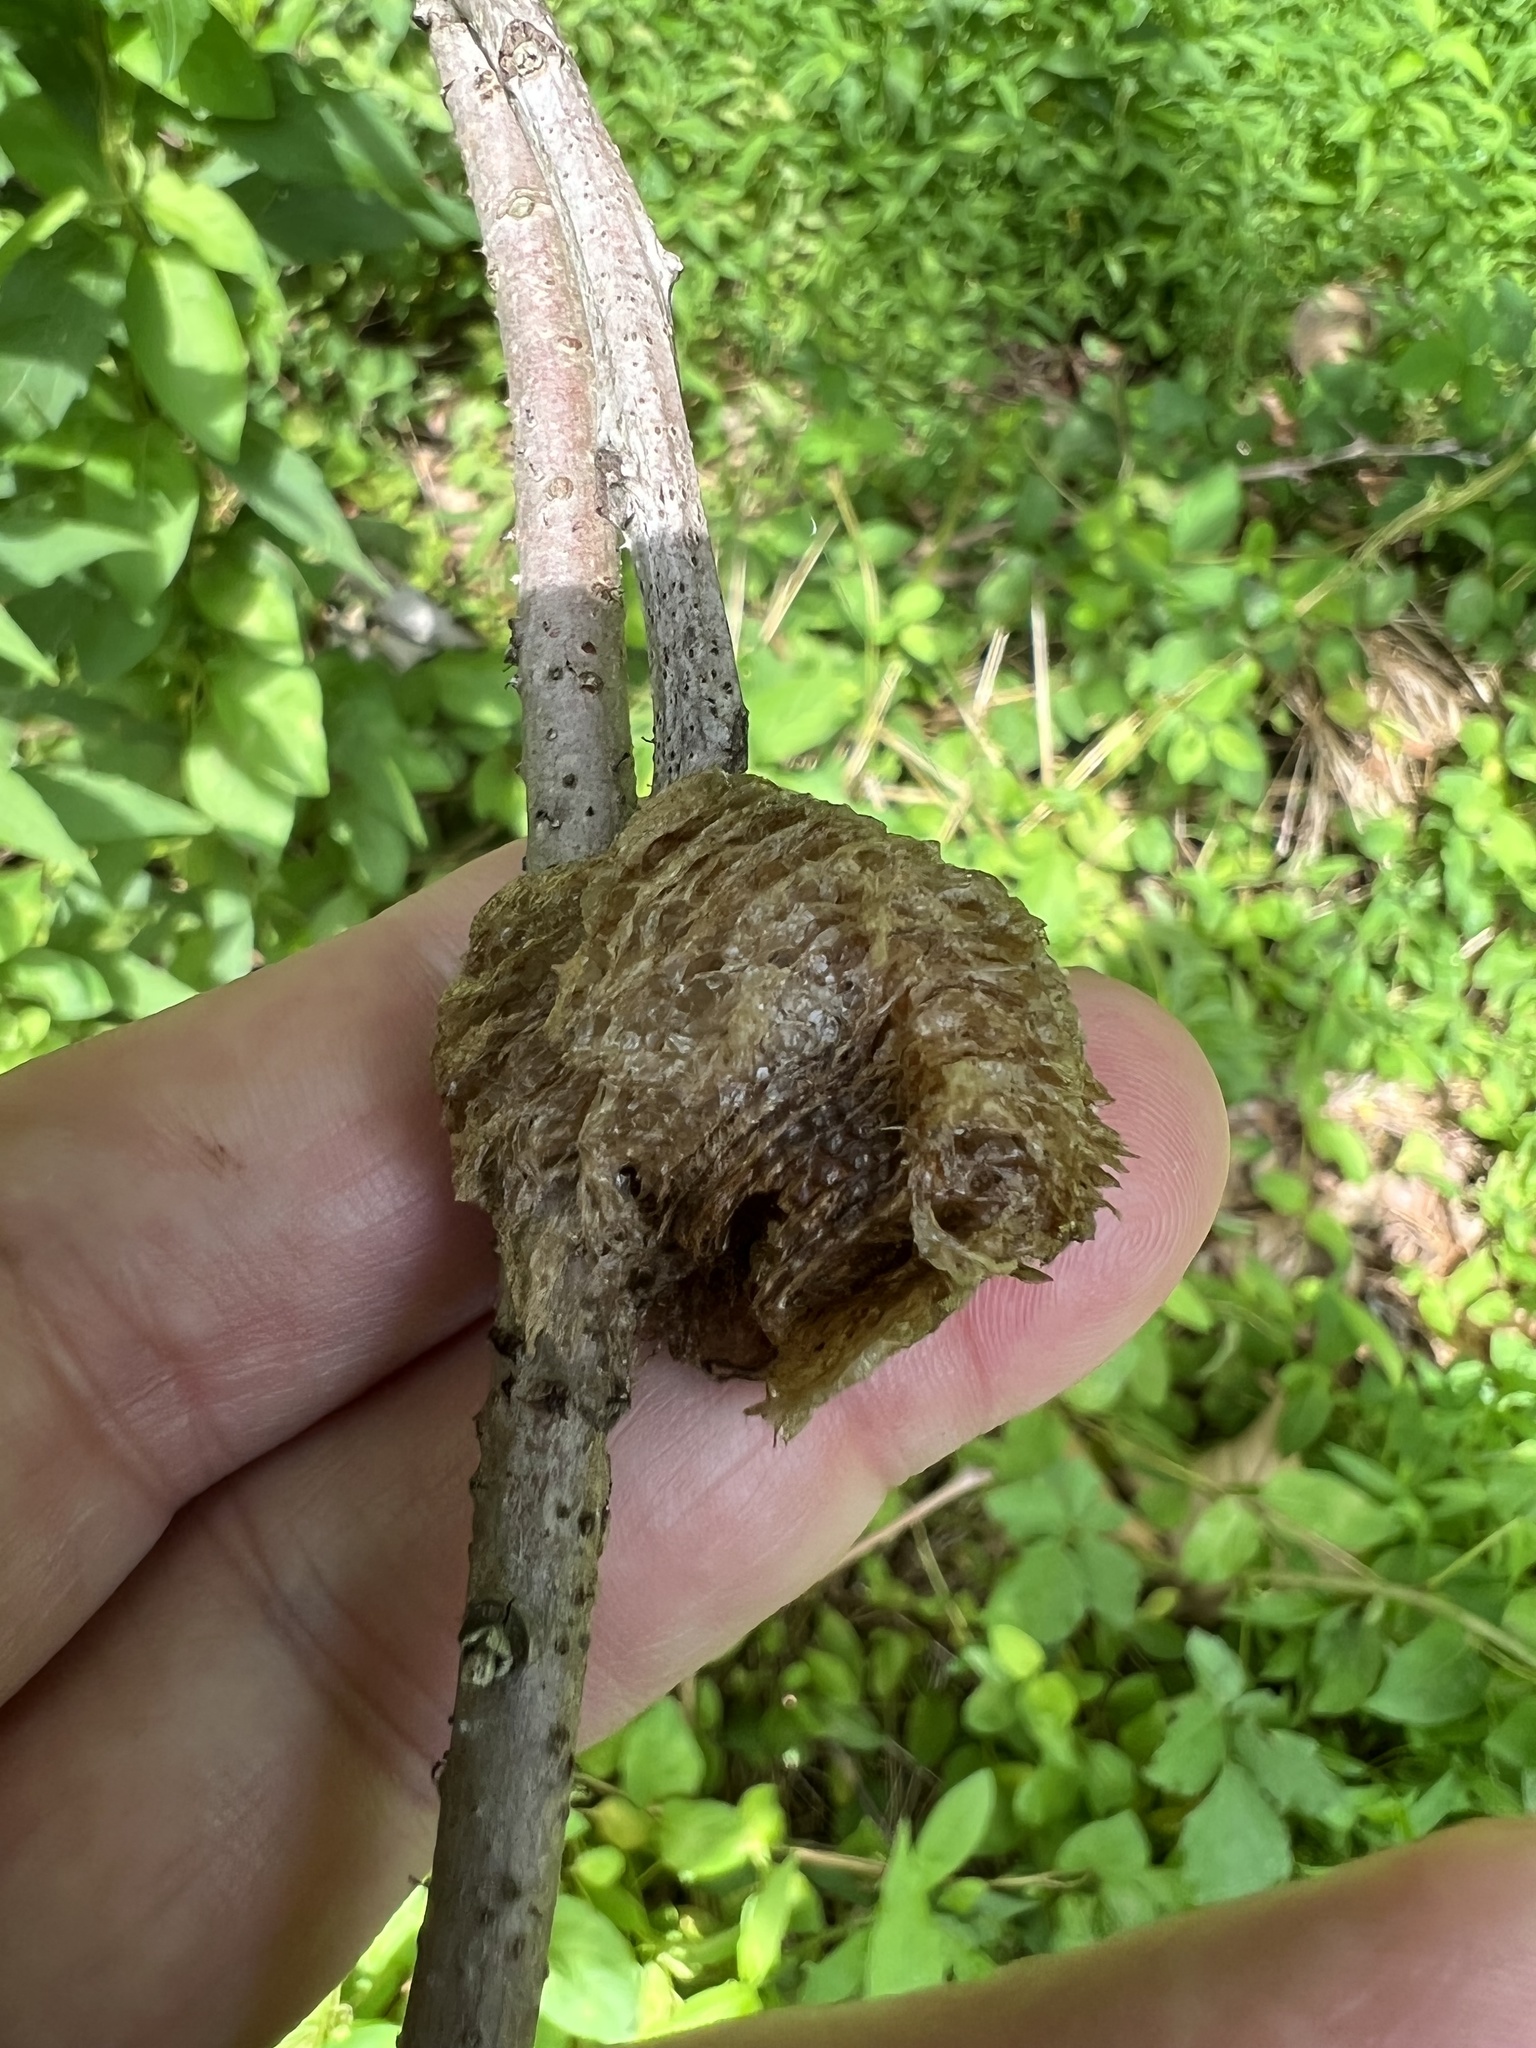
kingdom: Animalia
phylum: Arthropoda
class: Insecta
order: Mantodea
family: Mantidae
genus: Tenodera
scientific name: Tenodera sinensis
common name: Chinese mantis
